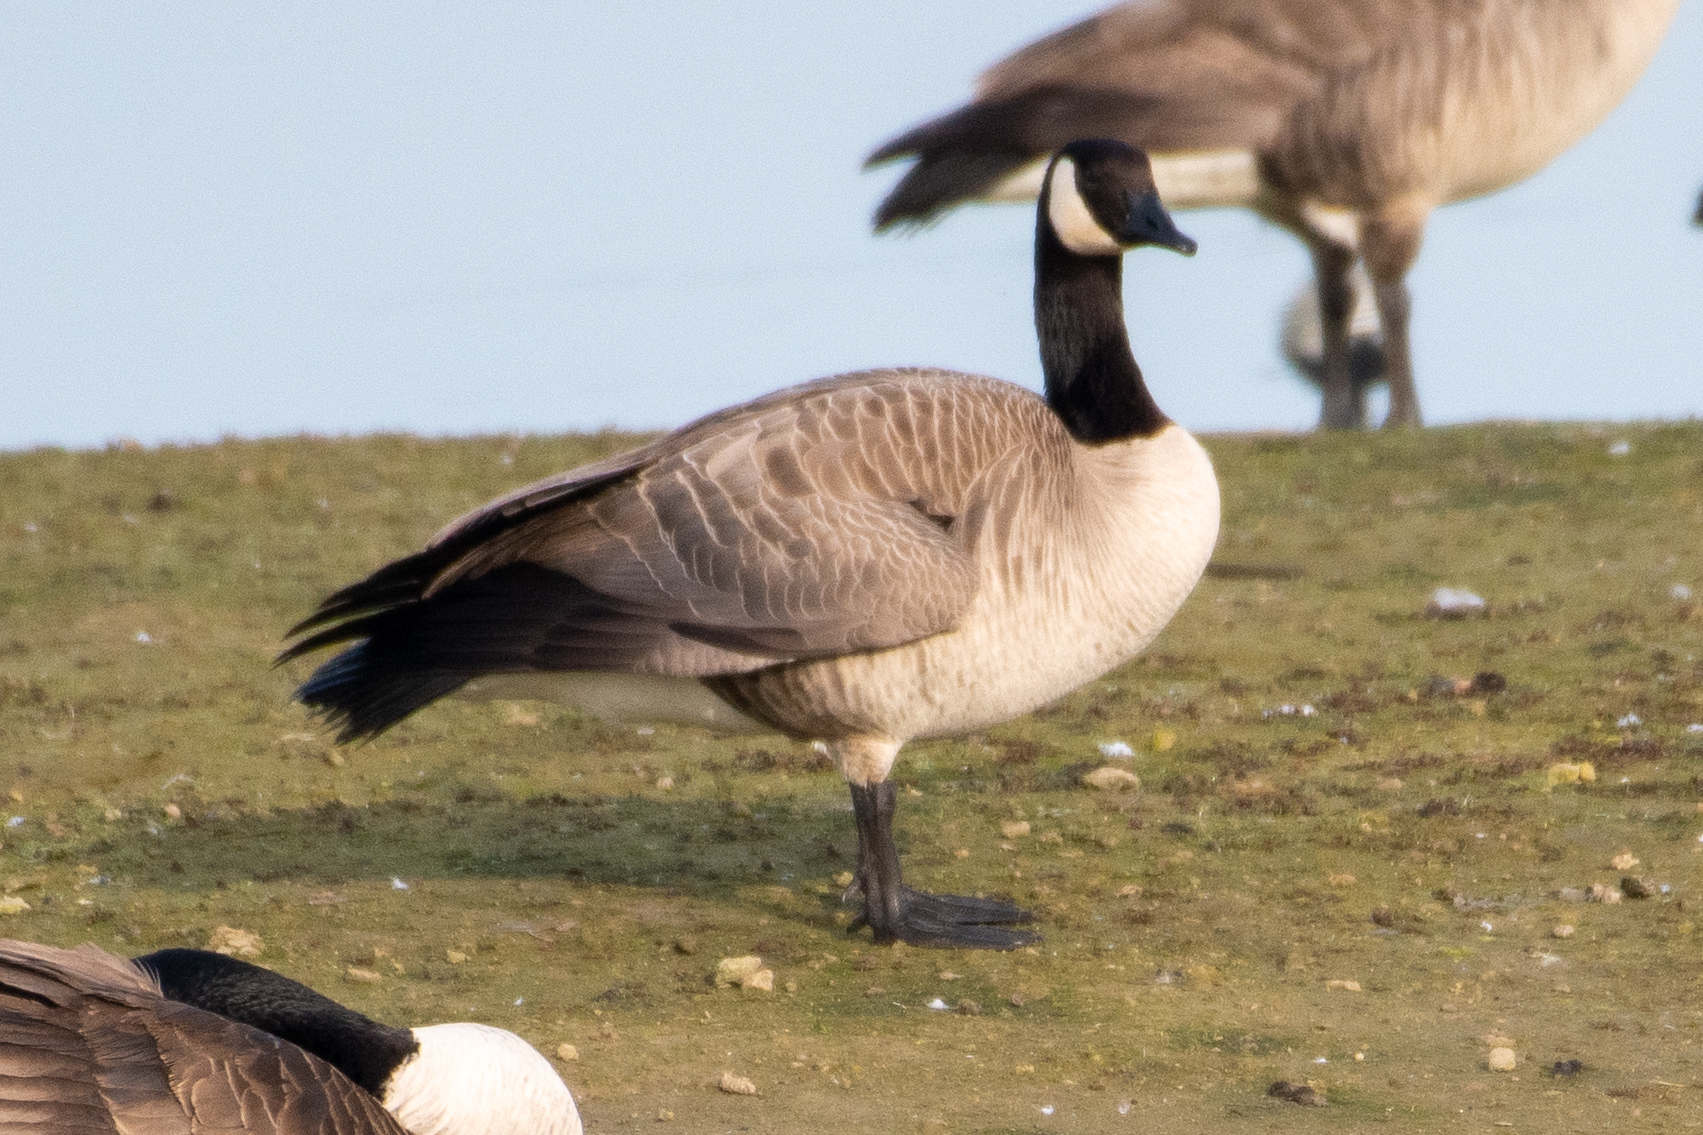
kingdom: Animalia
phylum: Chordata
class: Aves
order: Anseriformes
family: Anatidae
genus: Branta
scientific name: Branta canadensis
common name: Canada goose
